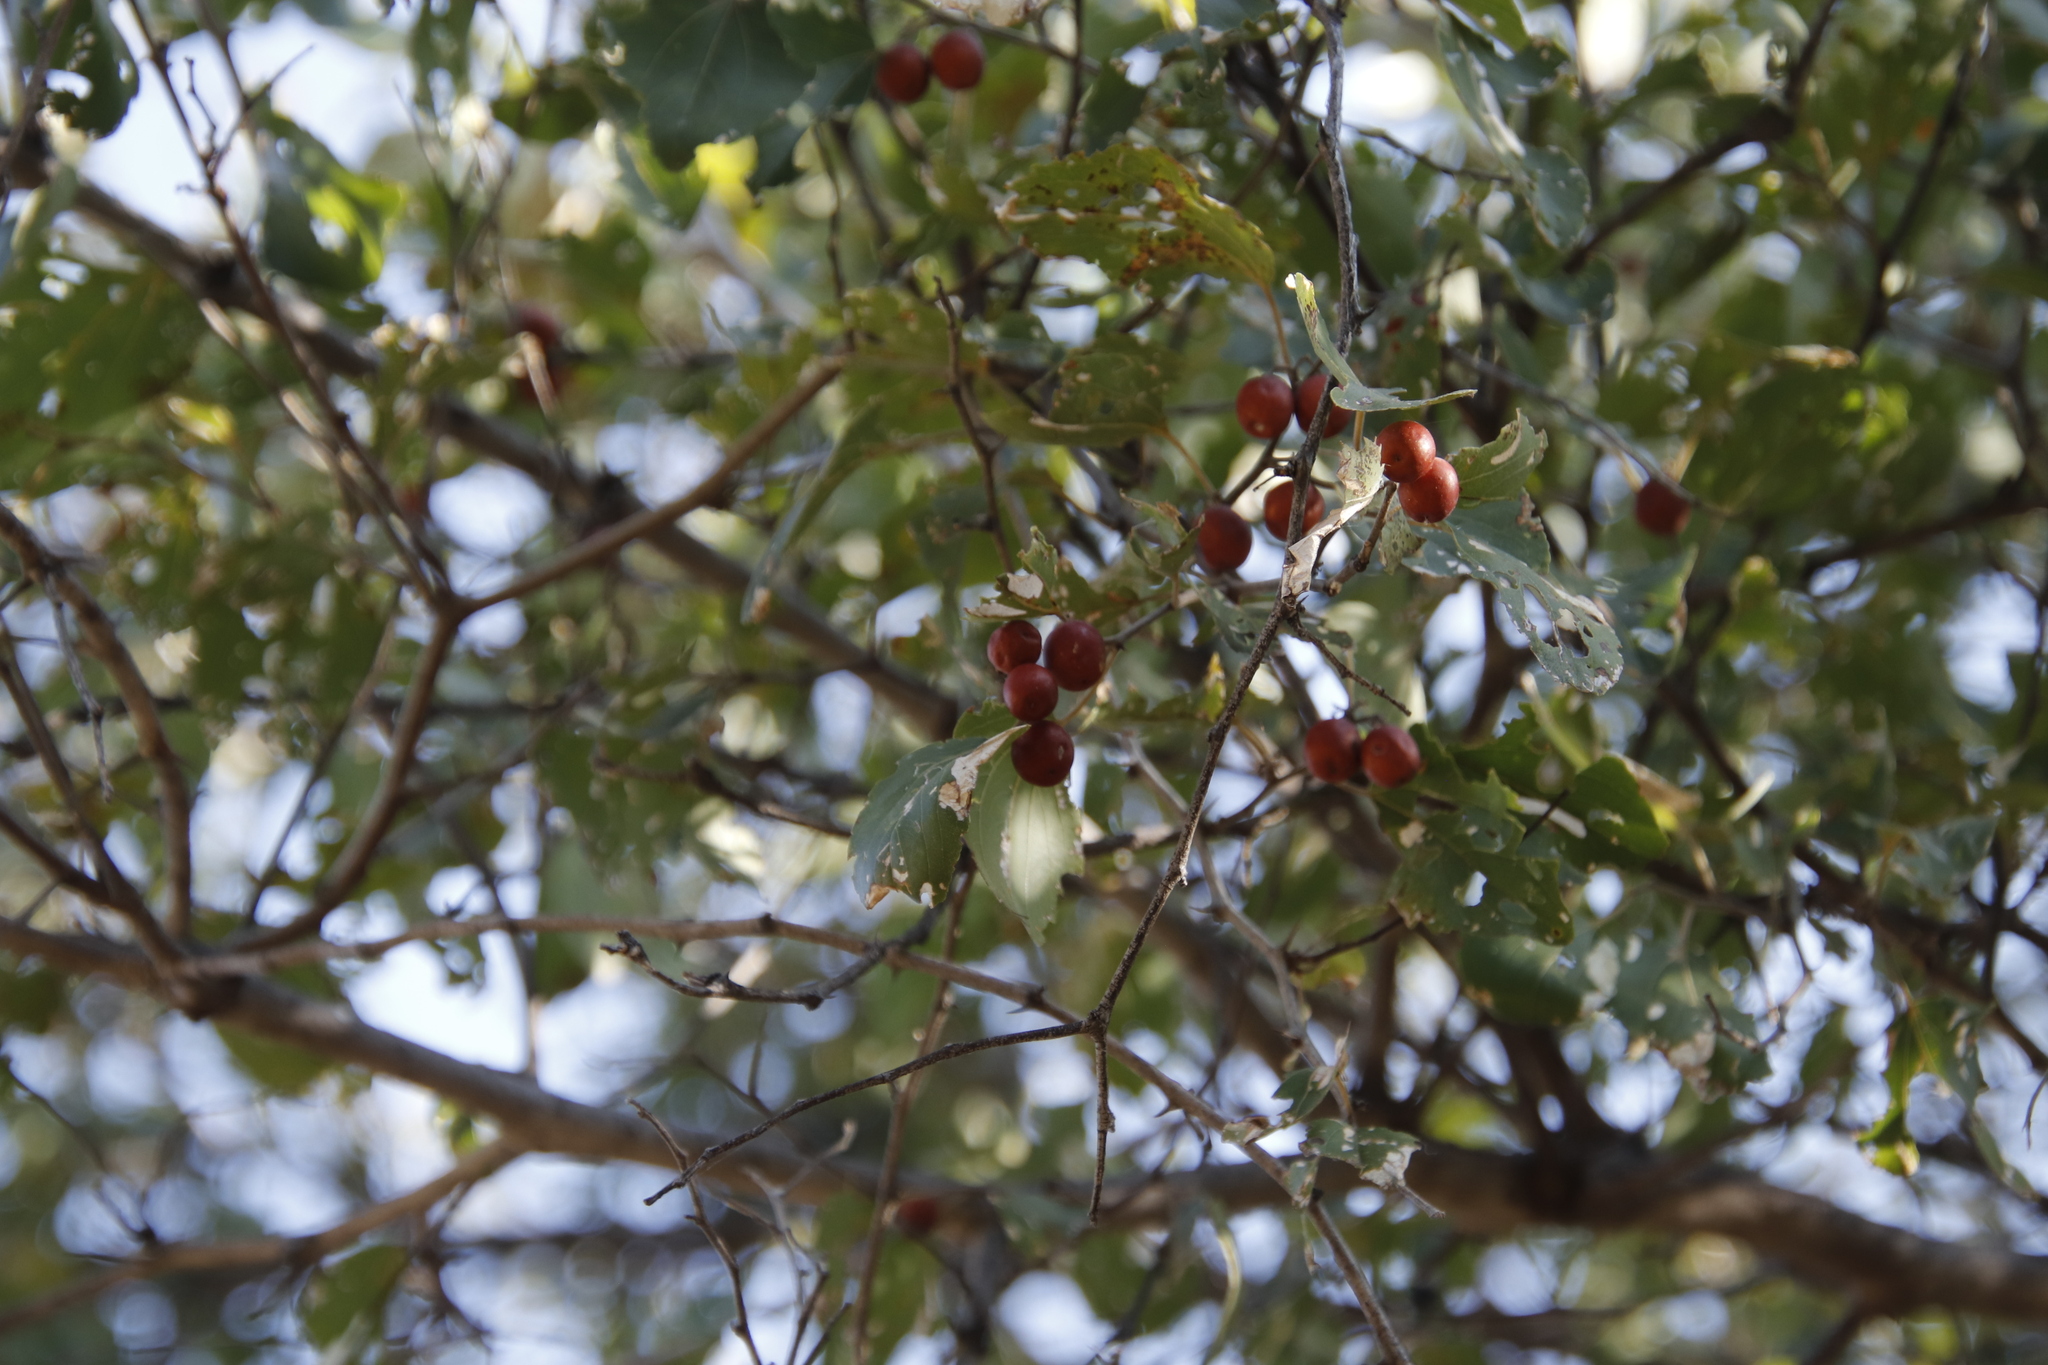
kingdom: Plantae
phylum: Tracheophyta
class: Magnoliopsida
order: Rosales
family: Rhamnaceae
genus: Ziziphus
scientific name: Ziziphus mucronata
